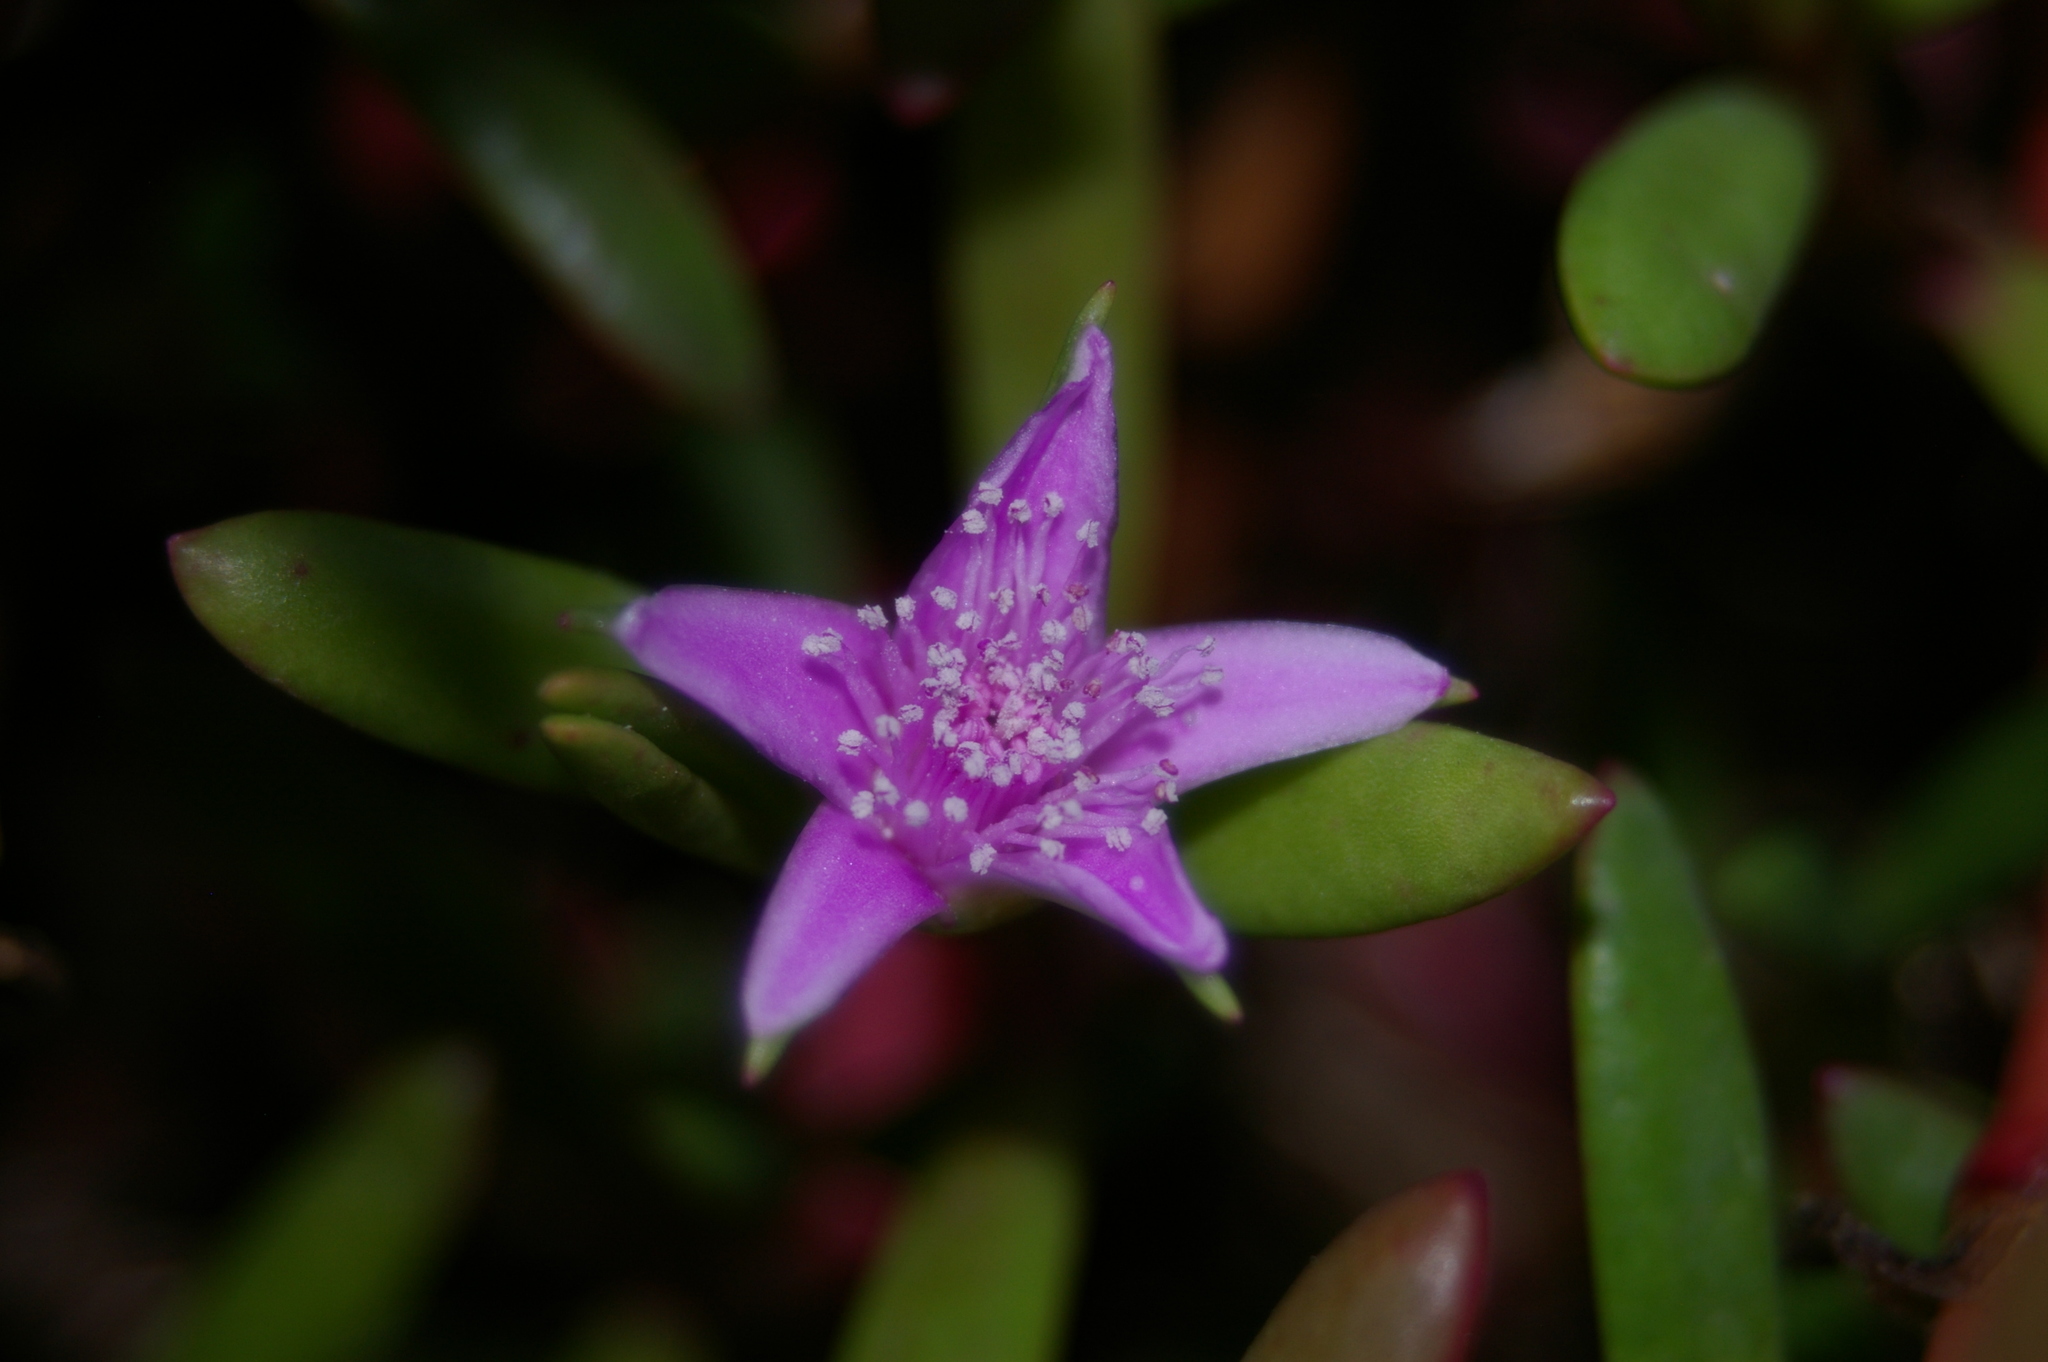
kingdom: Plantae
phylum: Tracheophyta
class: Magnoliopsida
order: Caryophyllales
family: Aizoaceae
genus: Sesuvium
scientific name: Sesuvium portulacastrum
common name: Sea-purslane
